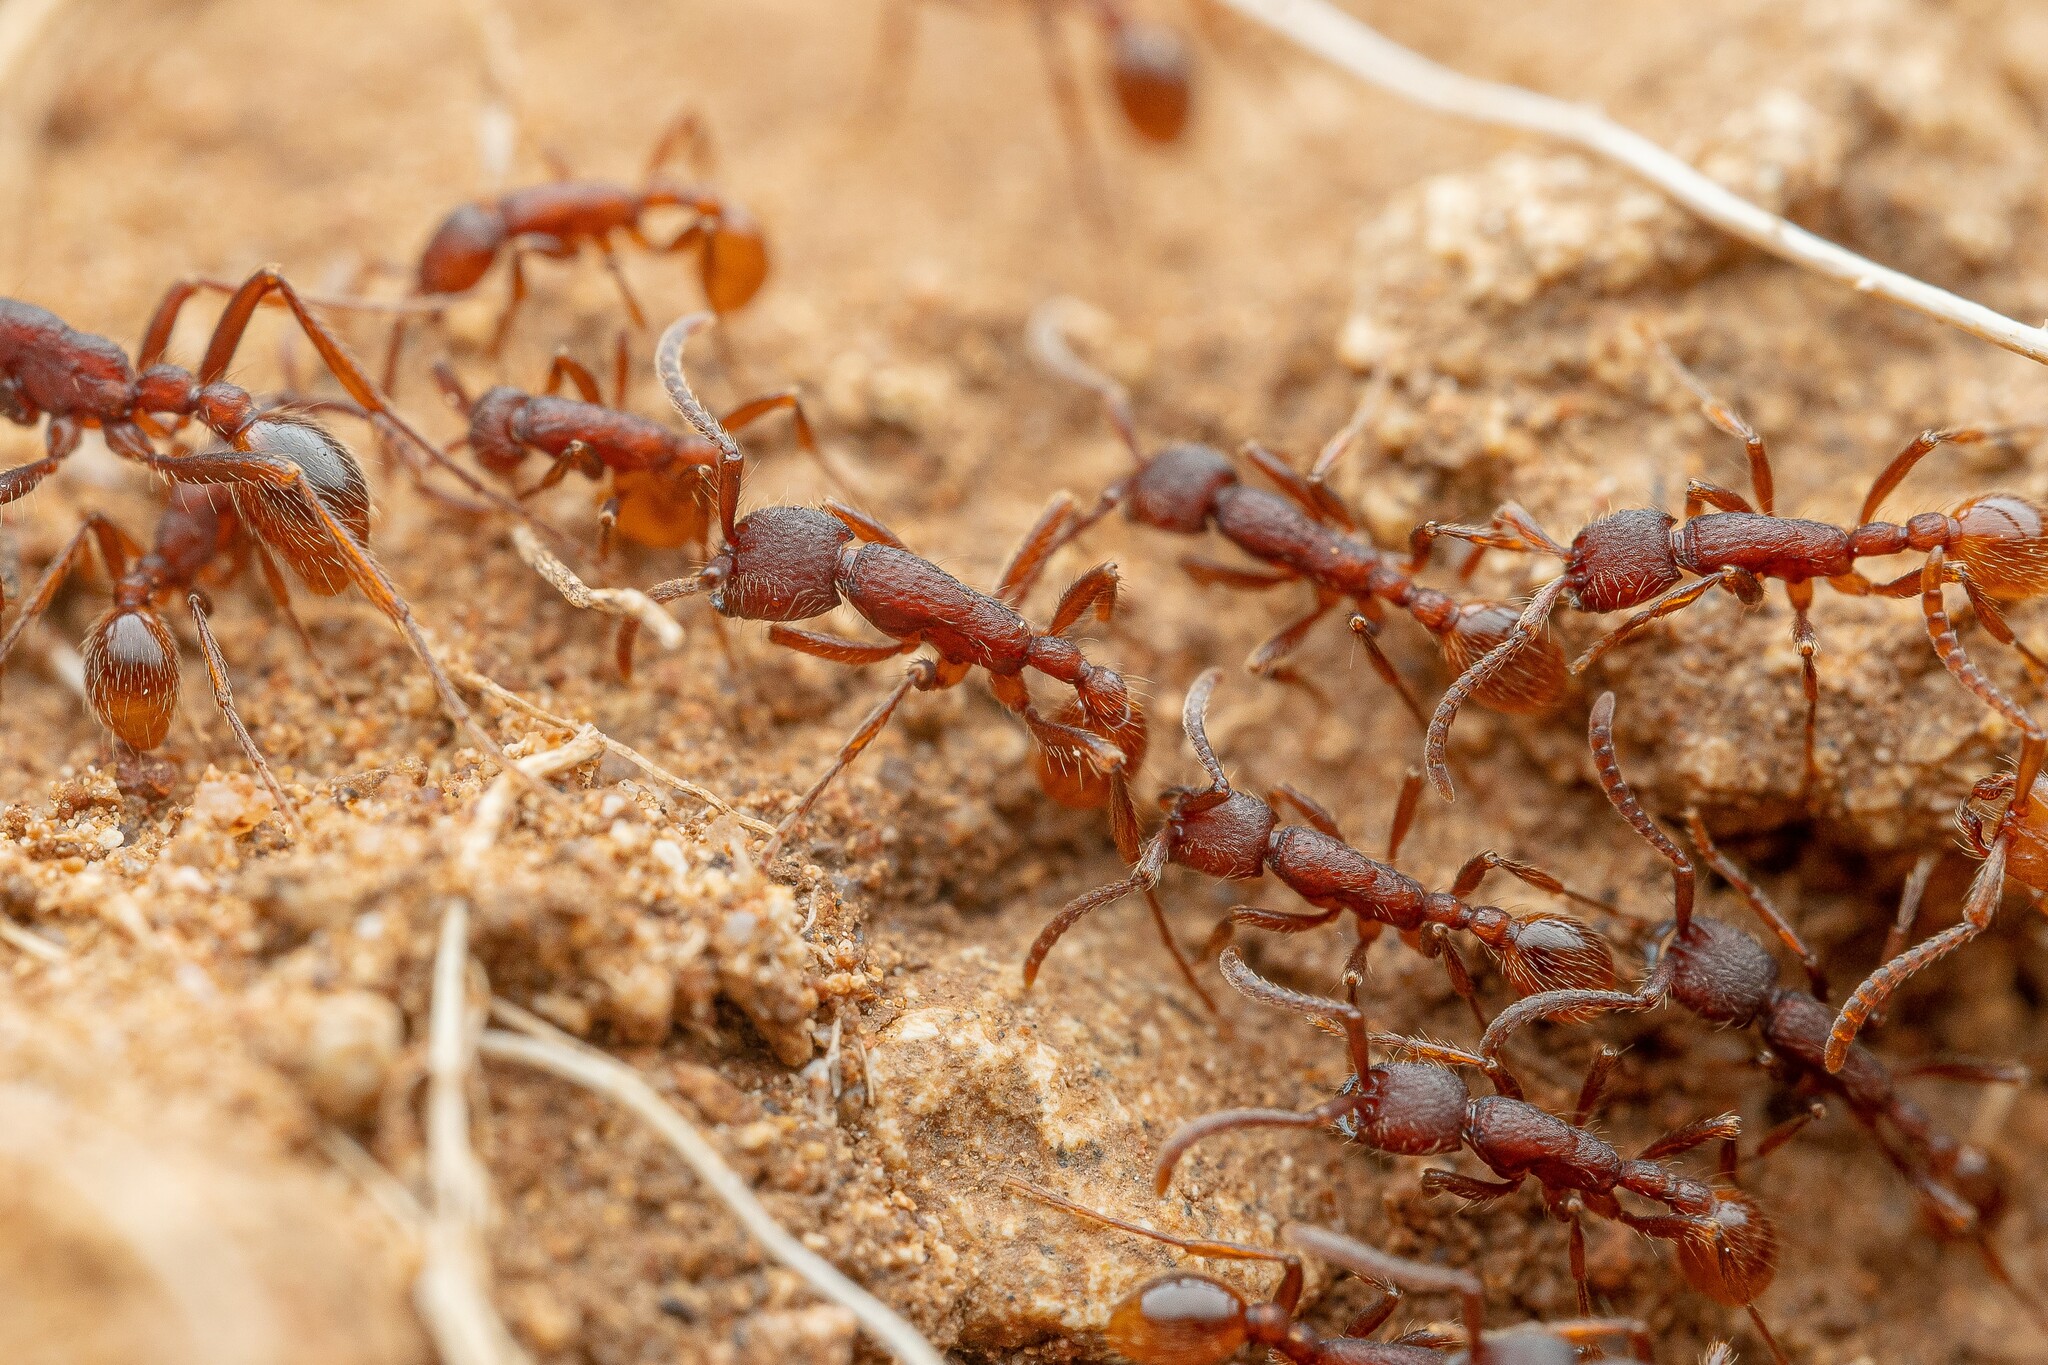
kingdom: Animalia
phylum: Arthropoda
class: Insecta
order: Hymenoptera
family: Formicidae
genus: Neivamyrmex
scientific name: Neivamyrmex nigrescens
